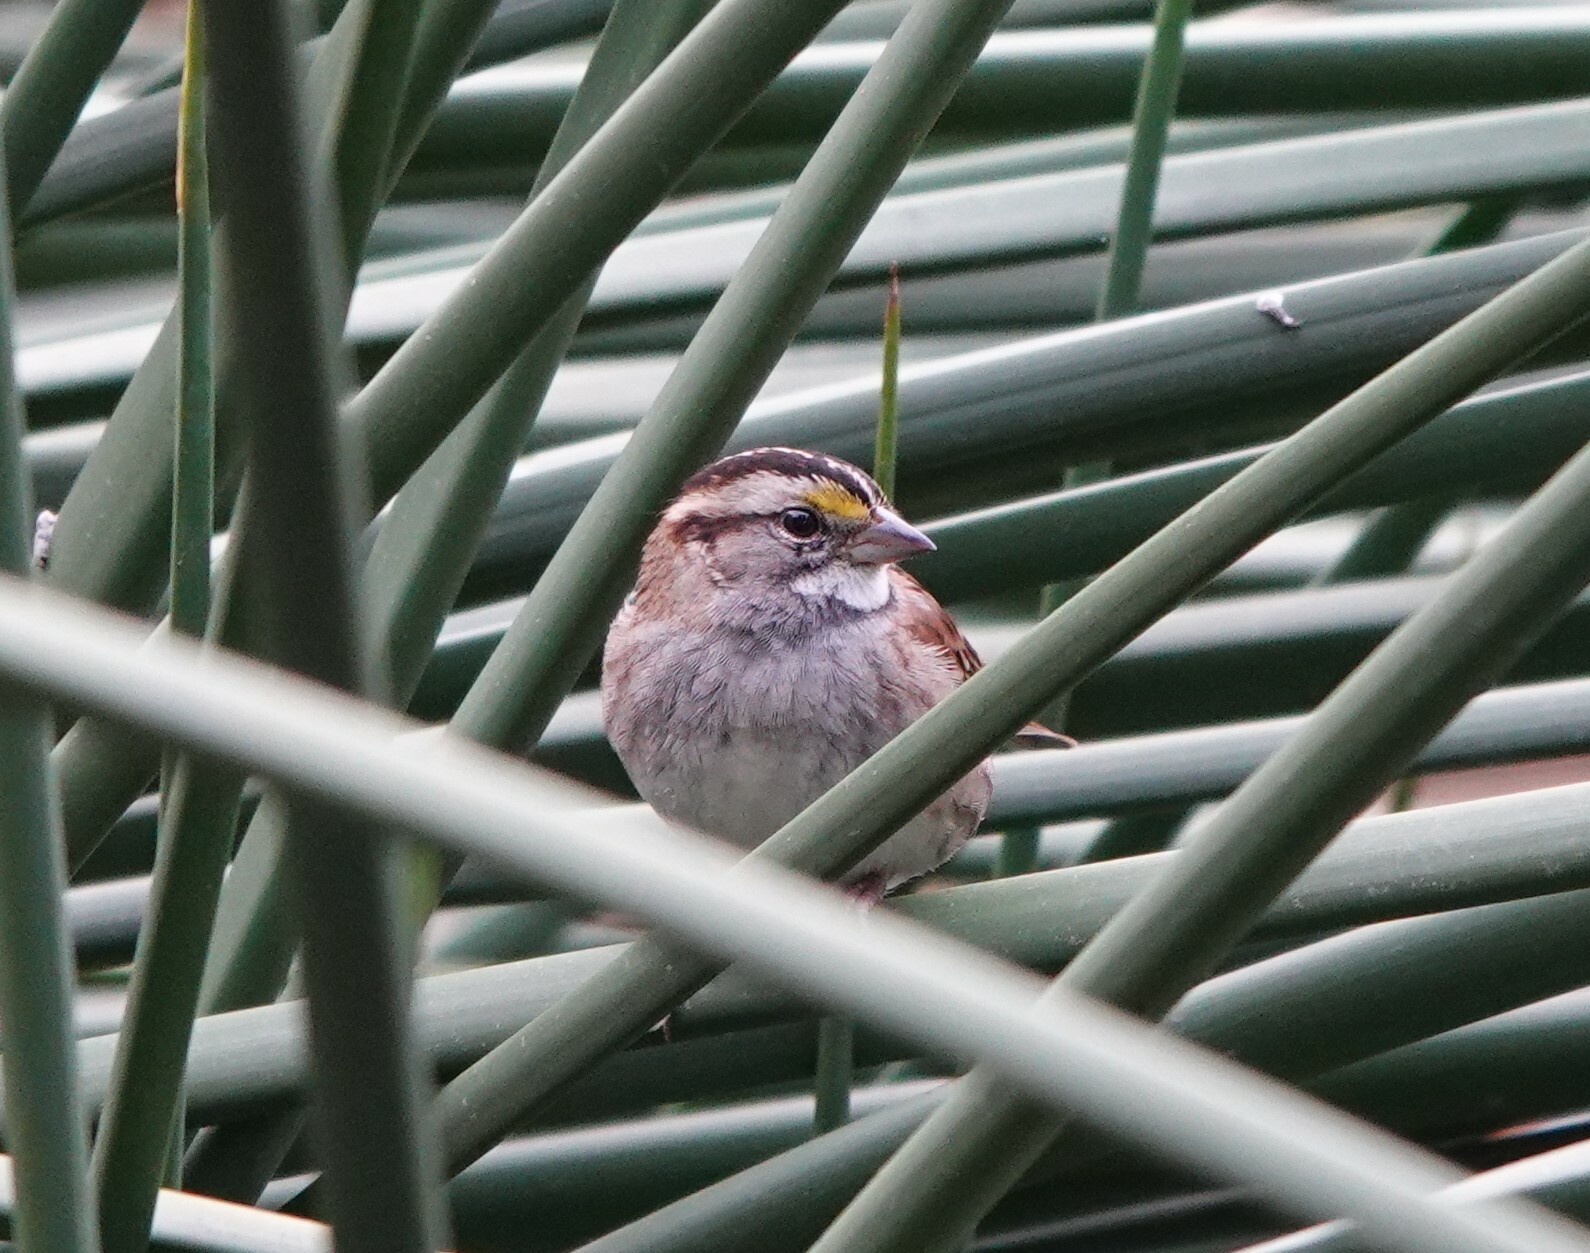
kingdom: Animalia
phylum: Chordata
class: Aves
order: Passeriformes
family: Passerellidae
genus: Zonotrichia
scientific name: Zonotrichia albicollis
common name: White-throated sparrow
